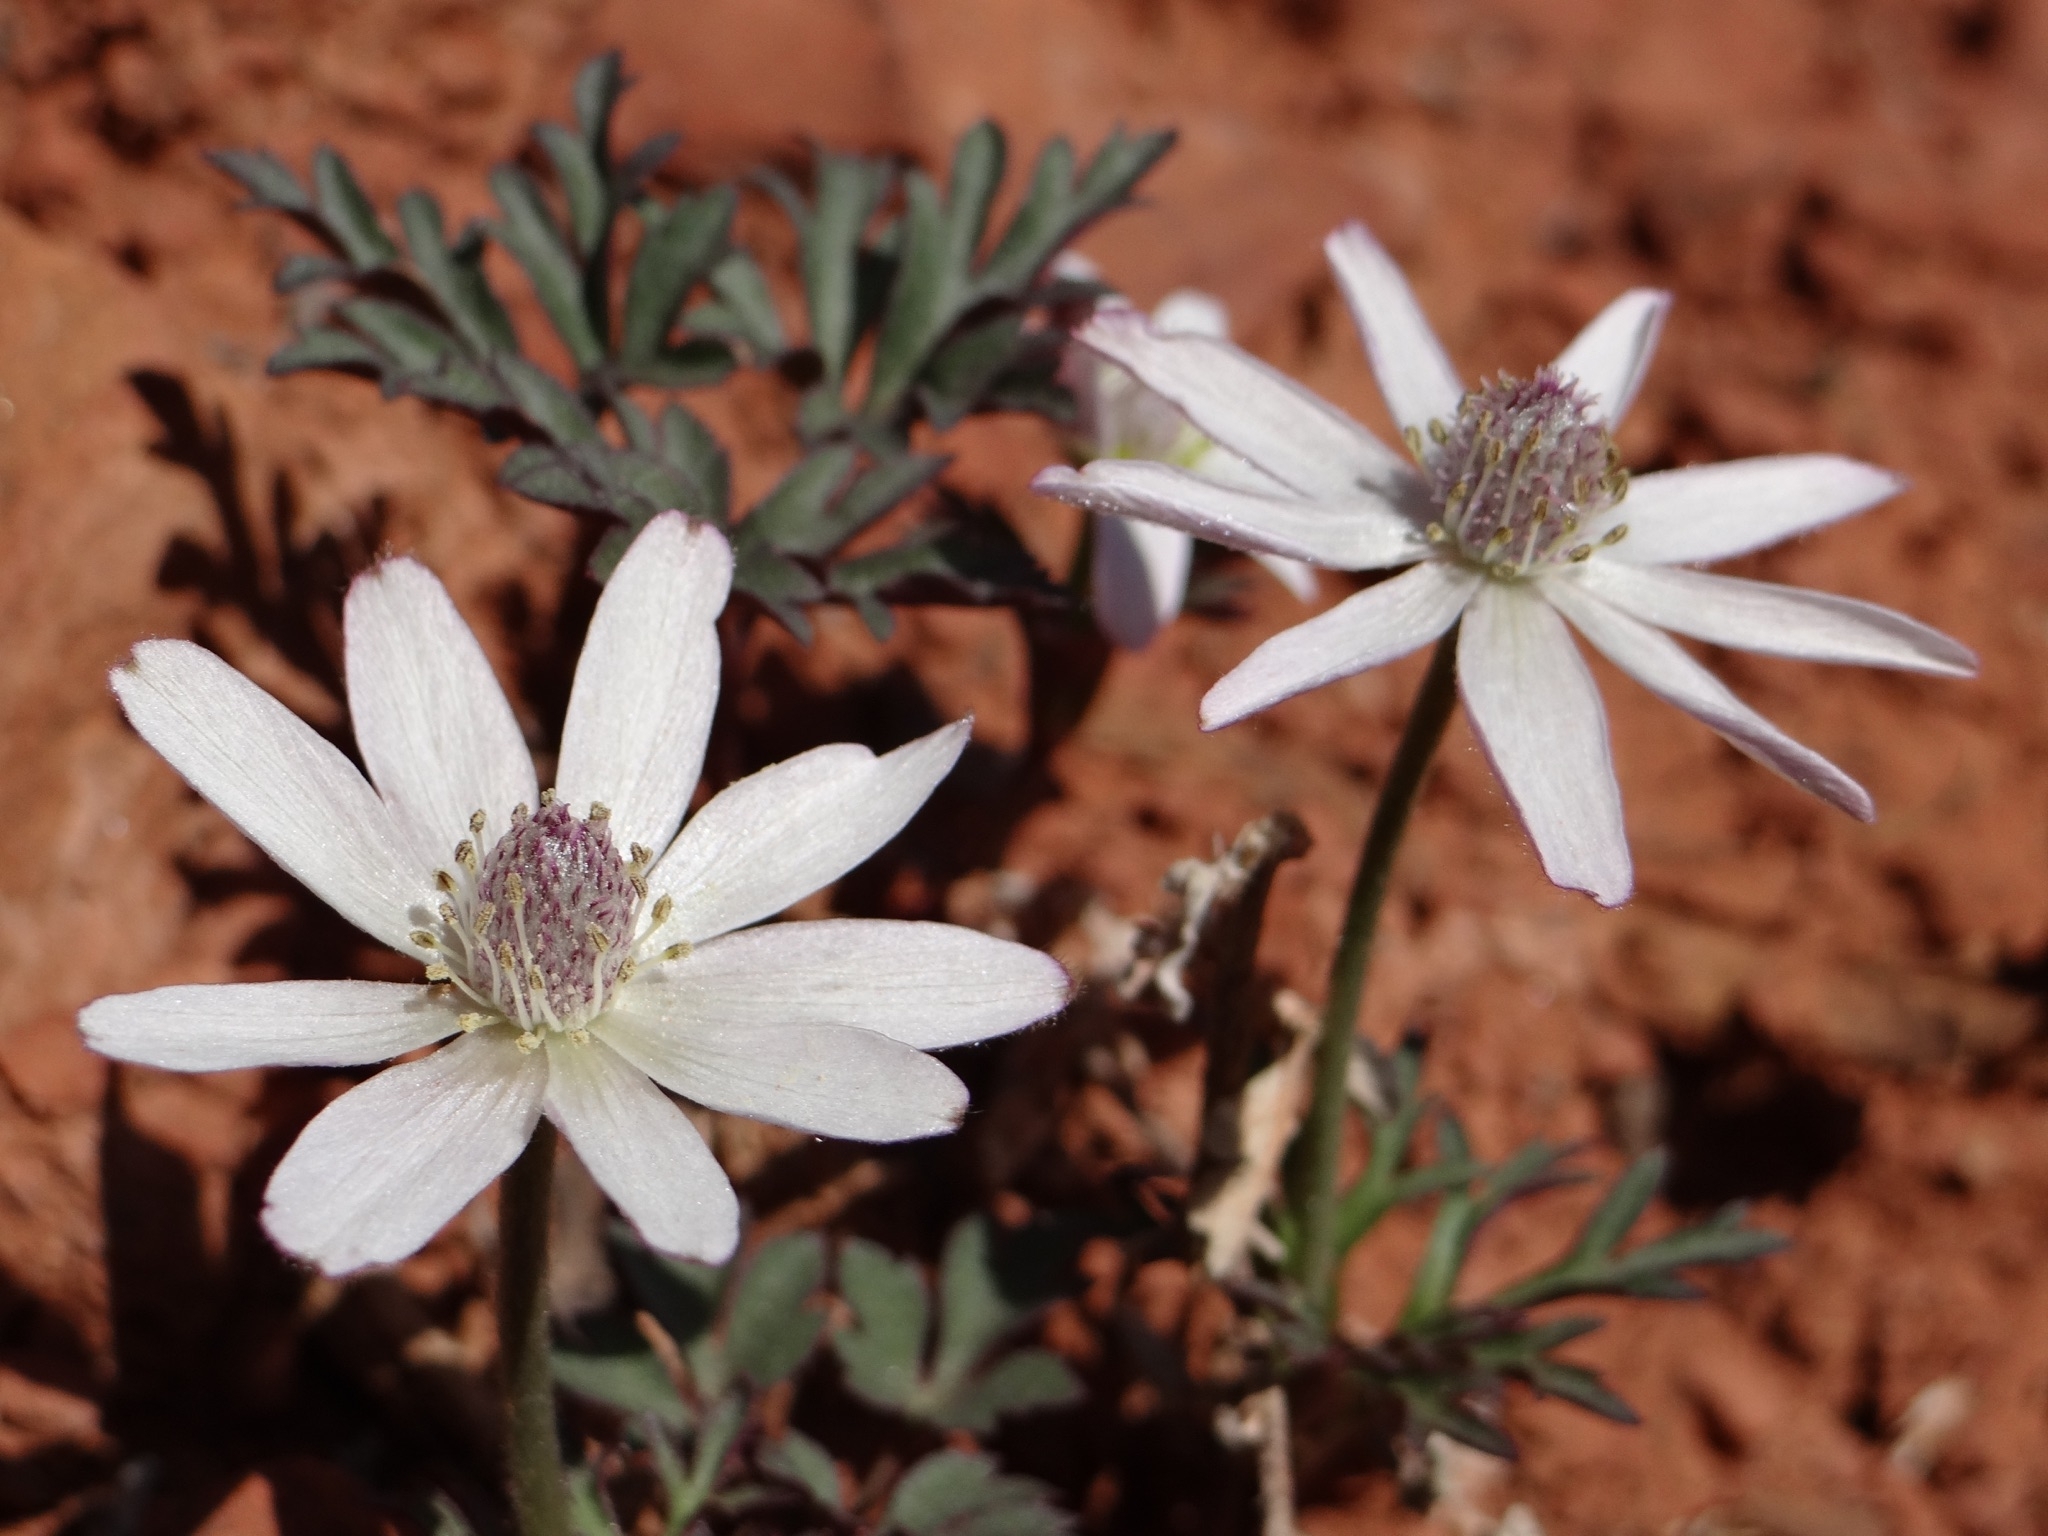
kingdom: Plantae
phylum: Tracheophyta
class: Magnoliopsida
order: Ranunculales
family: Ranunculaceae
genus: Anemone
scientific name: Anemone tuberosa
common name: Desert anemone
